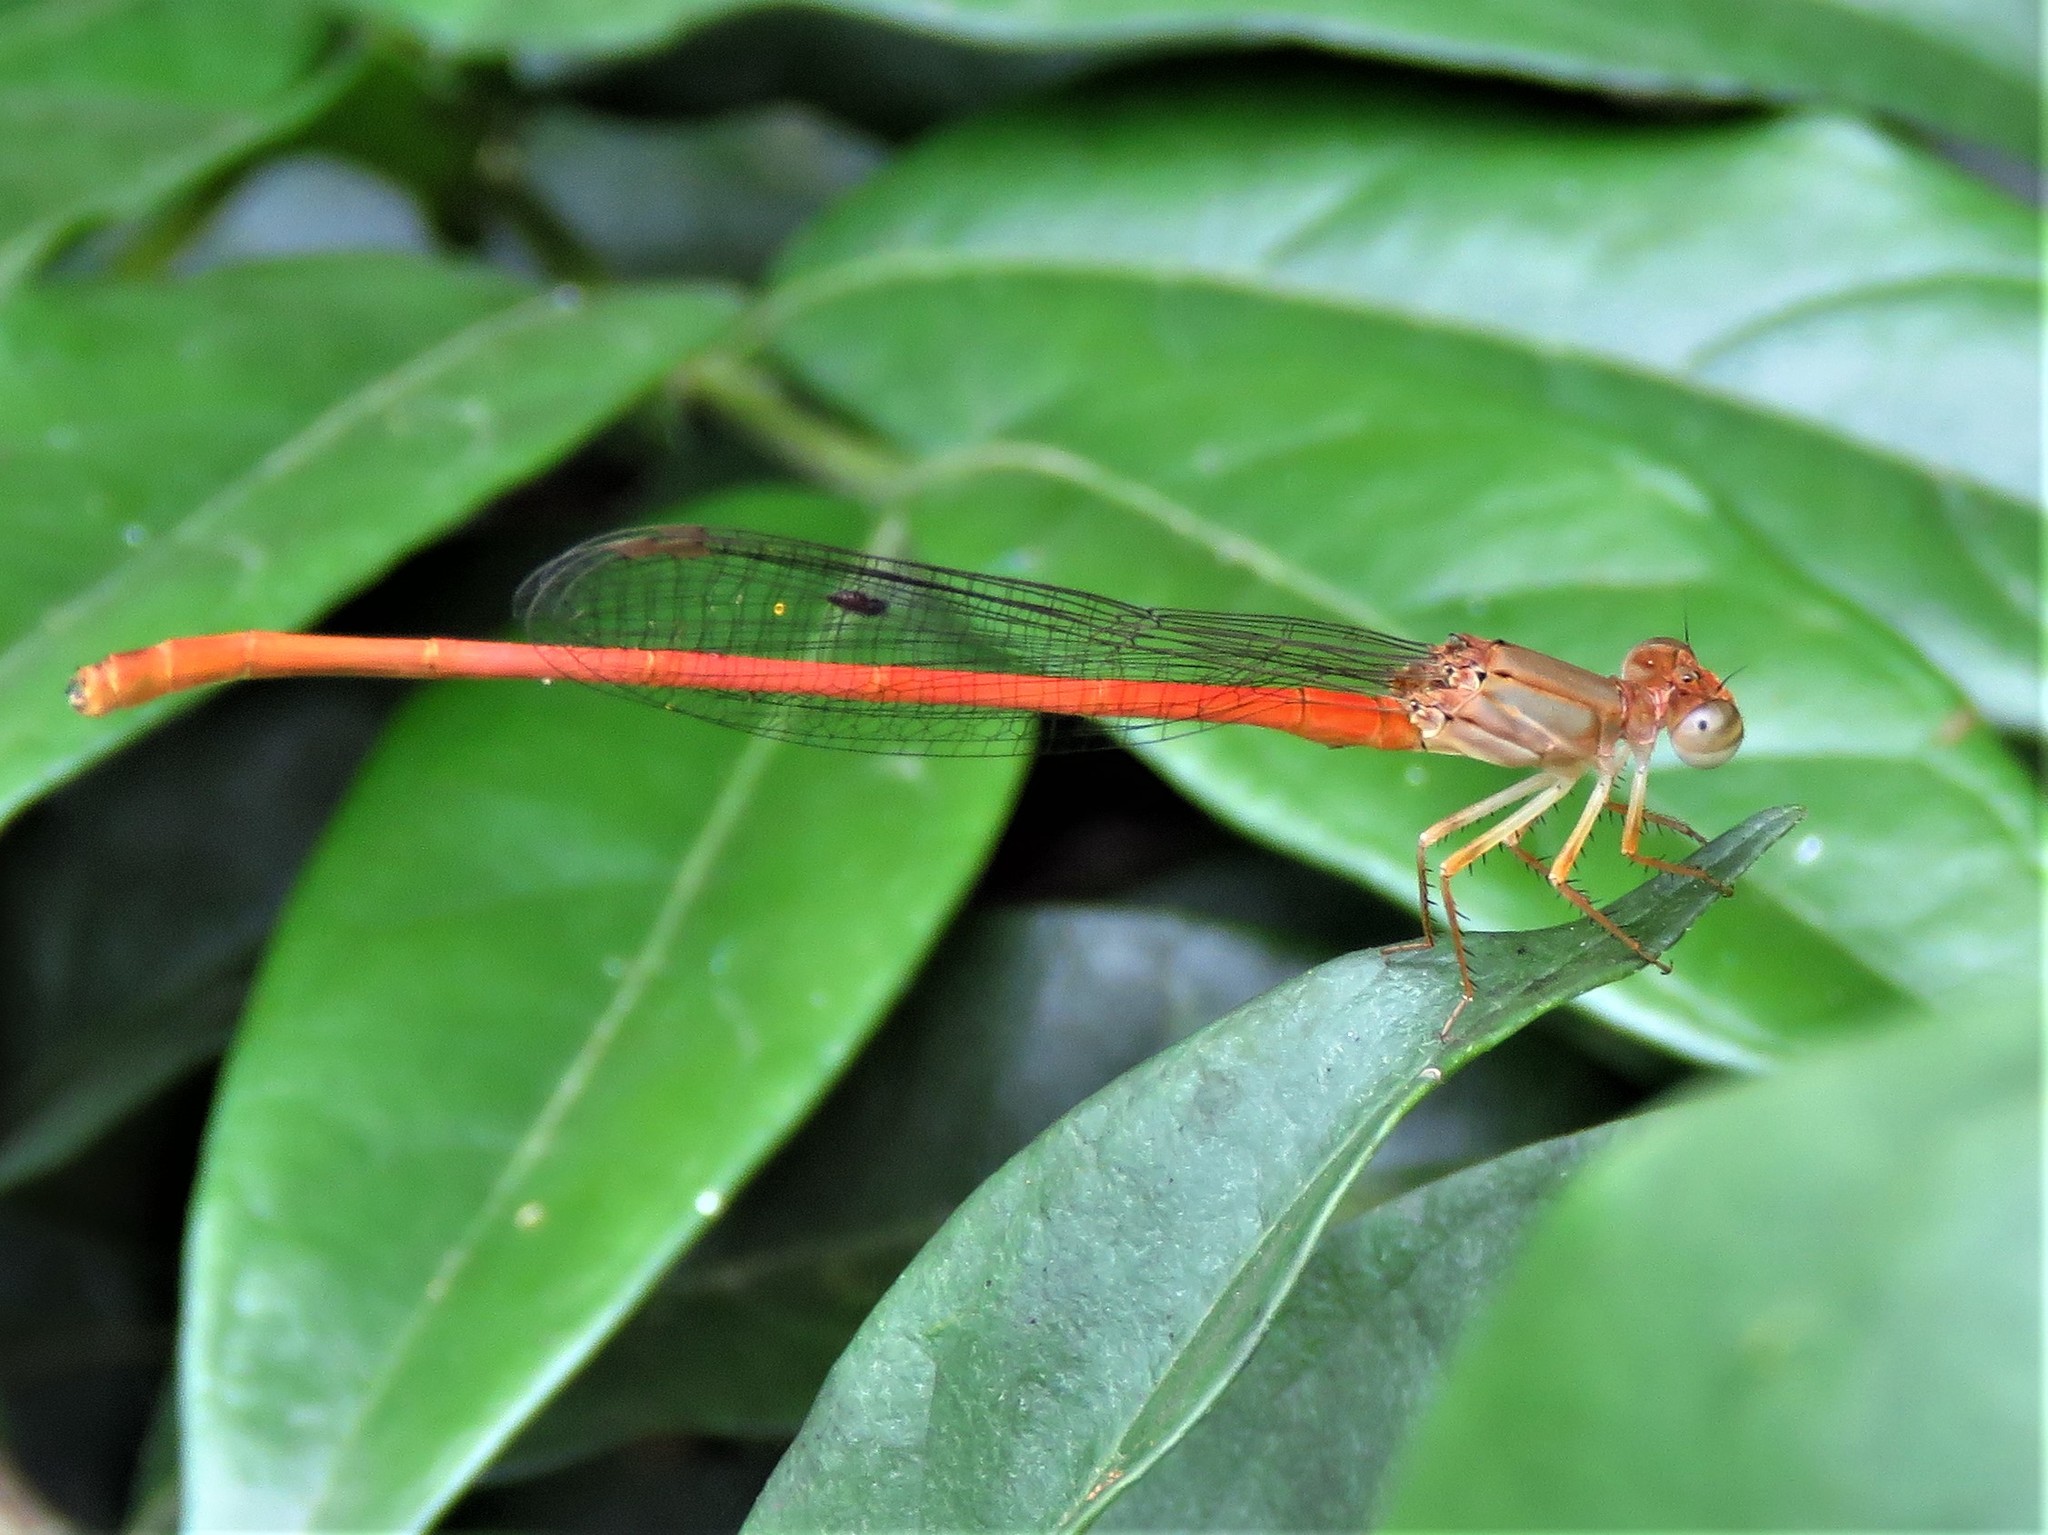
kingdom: Animalia
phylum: Arthropoda
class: Insecta
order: Odonata
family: Coenagrionidae
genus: Ceriagrion
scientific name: Ceriagrion glabrum
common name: Common pond damsel
